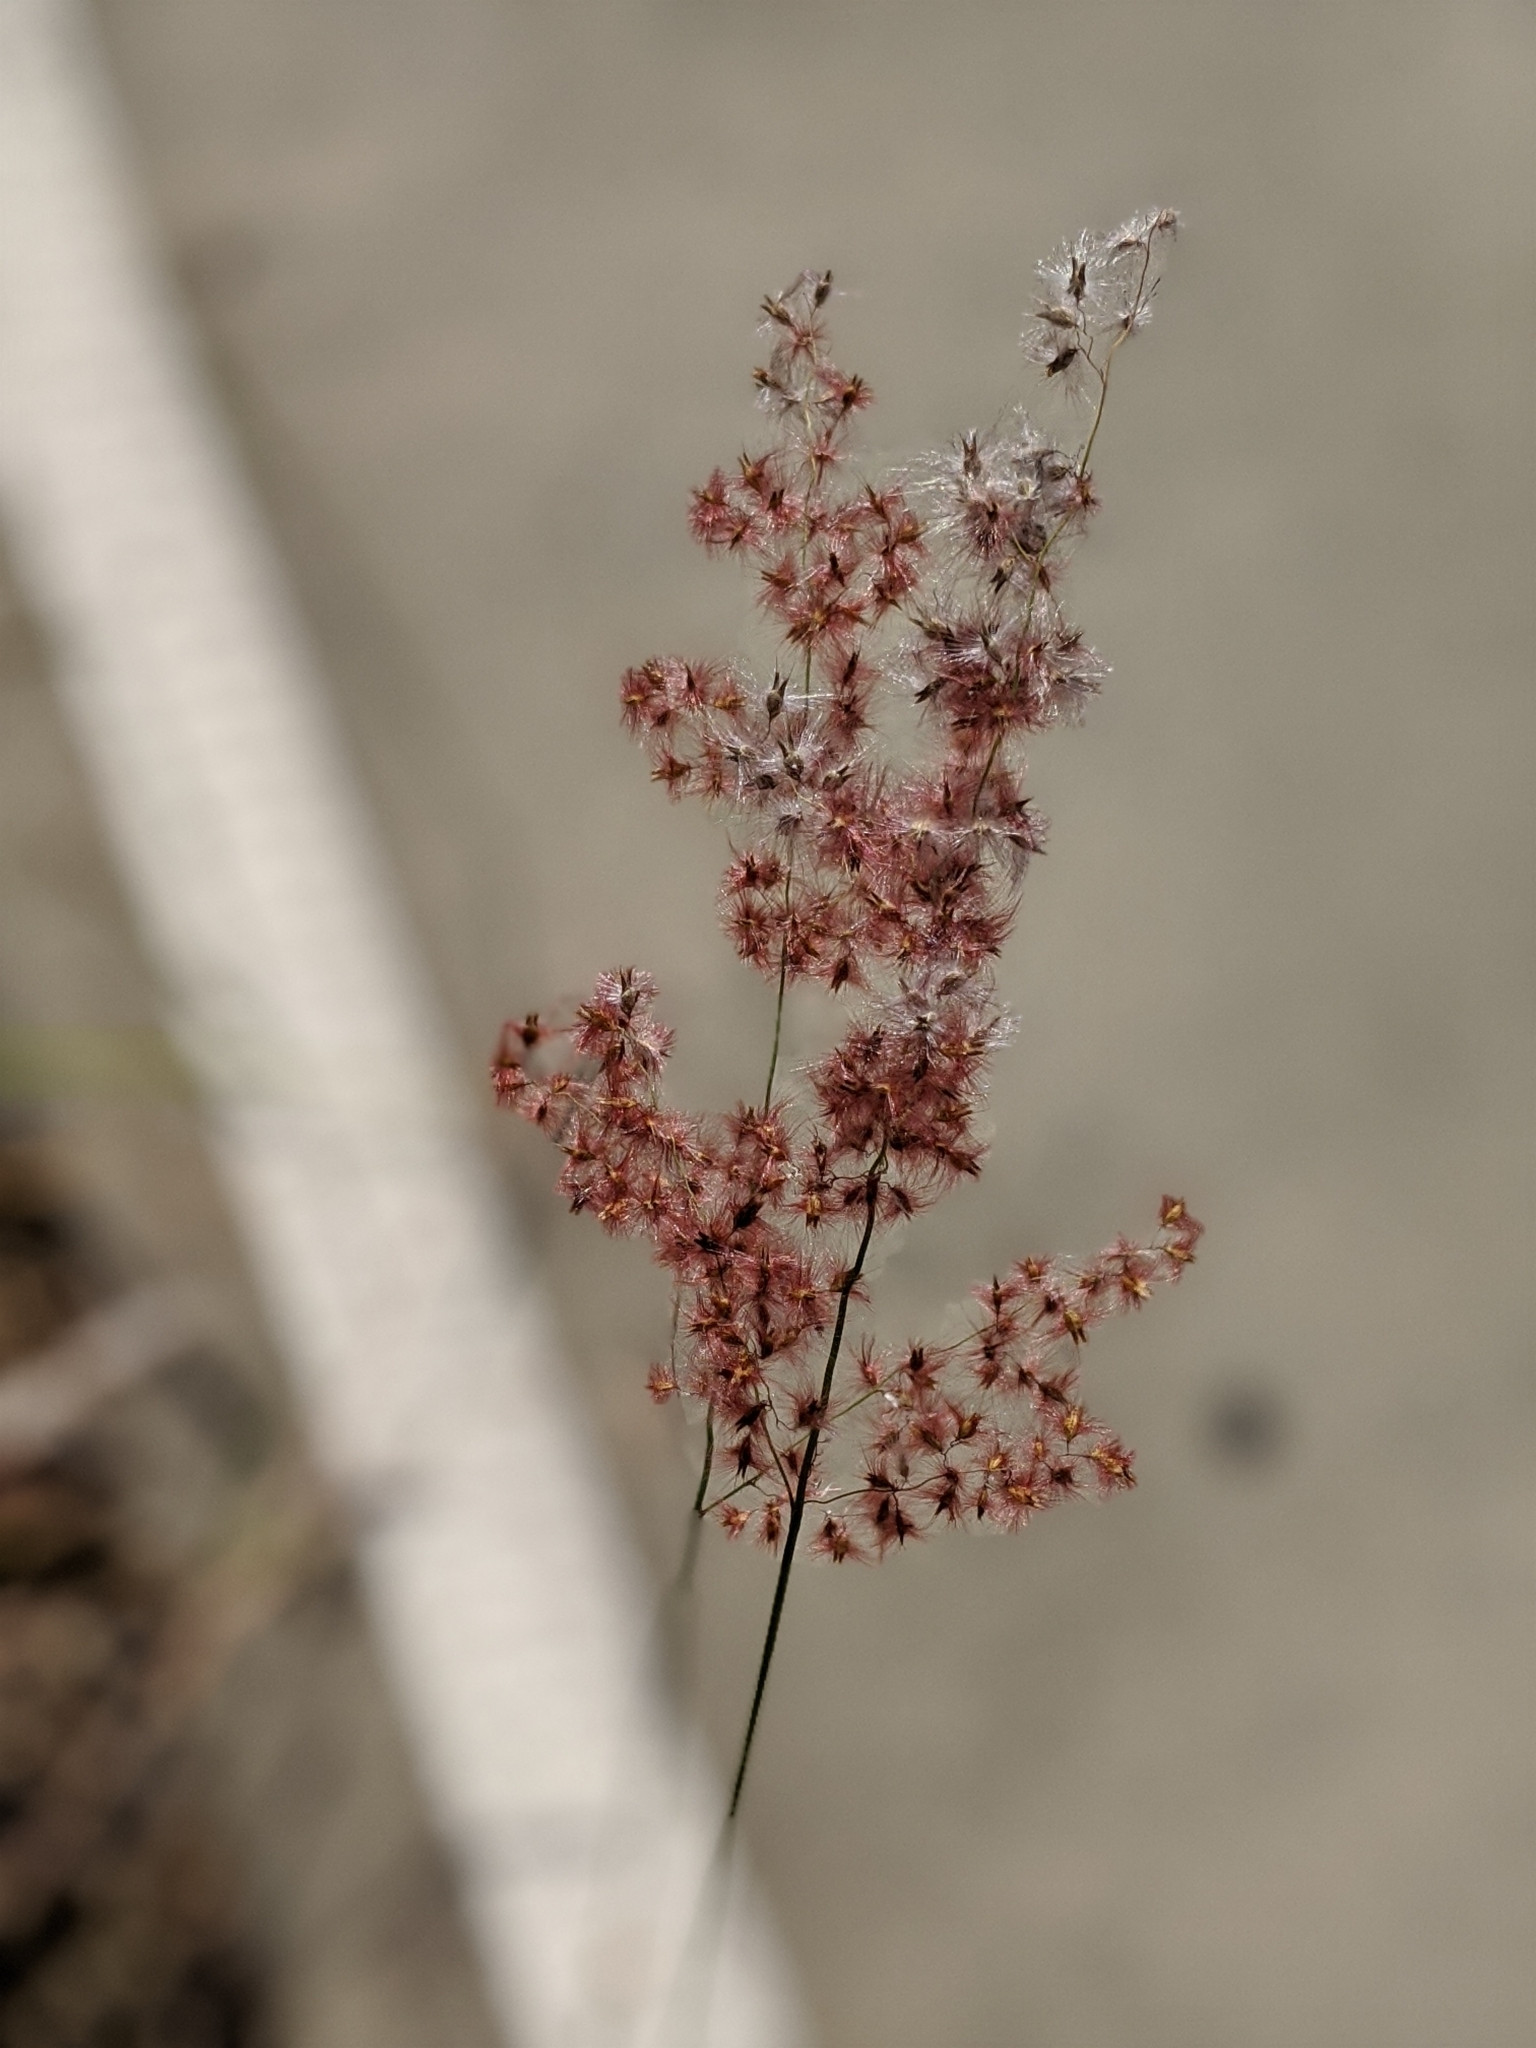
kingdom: Plantae
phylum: Tracheophyta
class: Liliopsida
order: Poales
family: Poaceae
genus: Melinis
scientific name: Melinis repens
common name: Rose natal grass
